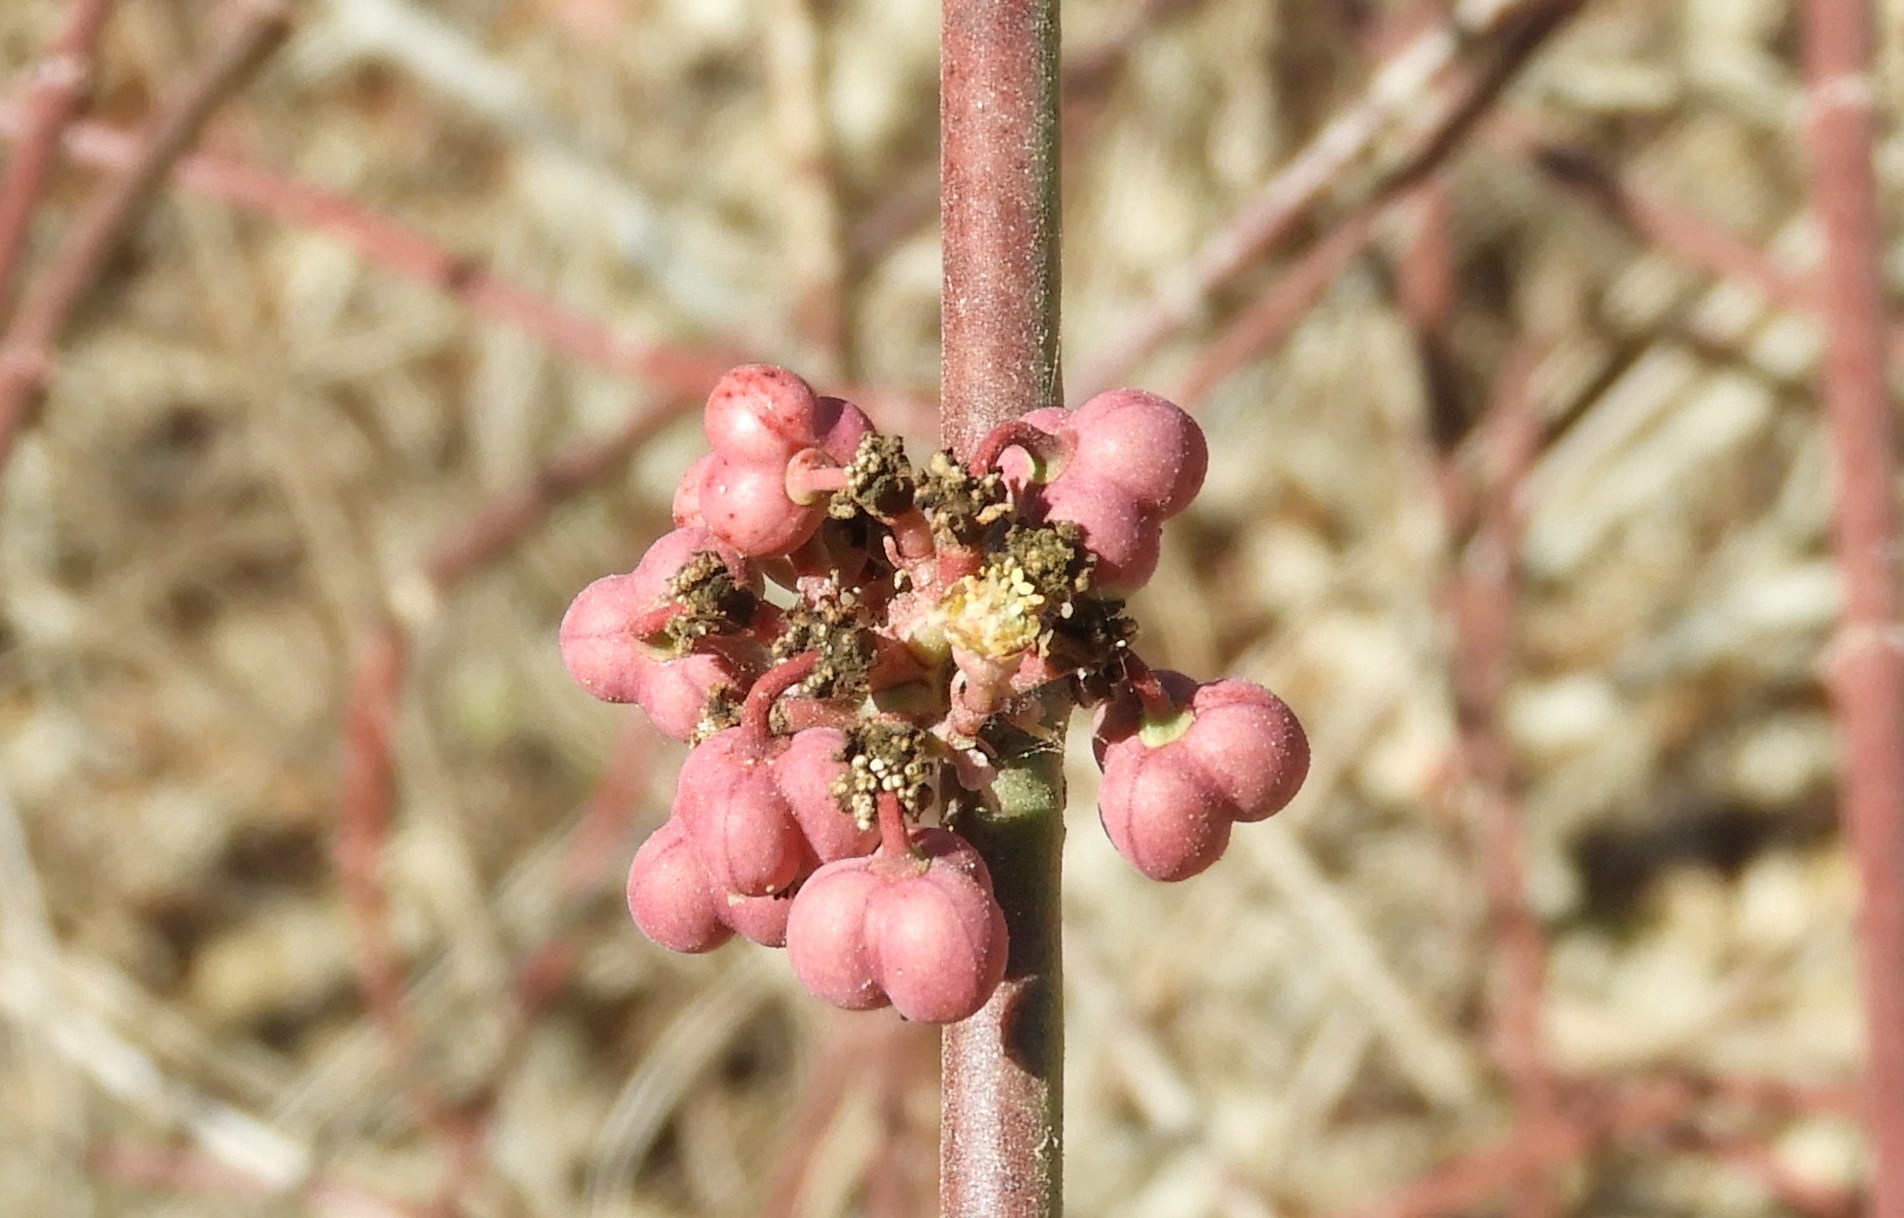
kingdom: Plantae
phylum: Tracheophyta
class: Magnoliopsida
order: Malpighiales
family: Euphorbiaceae
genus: Euphorbia
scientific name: Euphorbia colletioides
